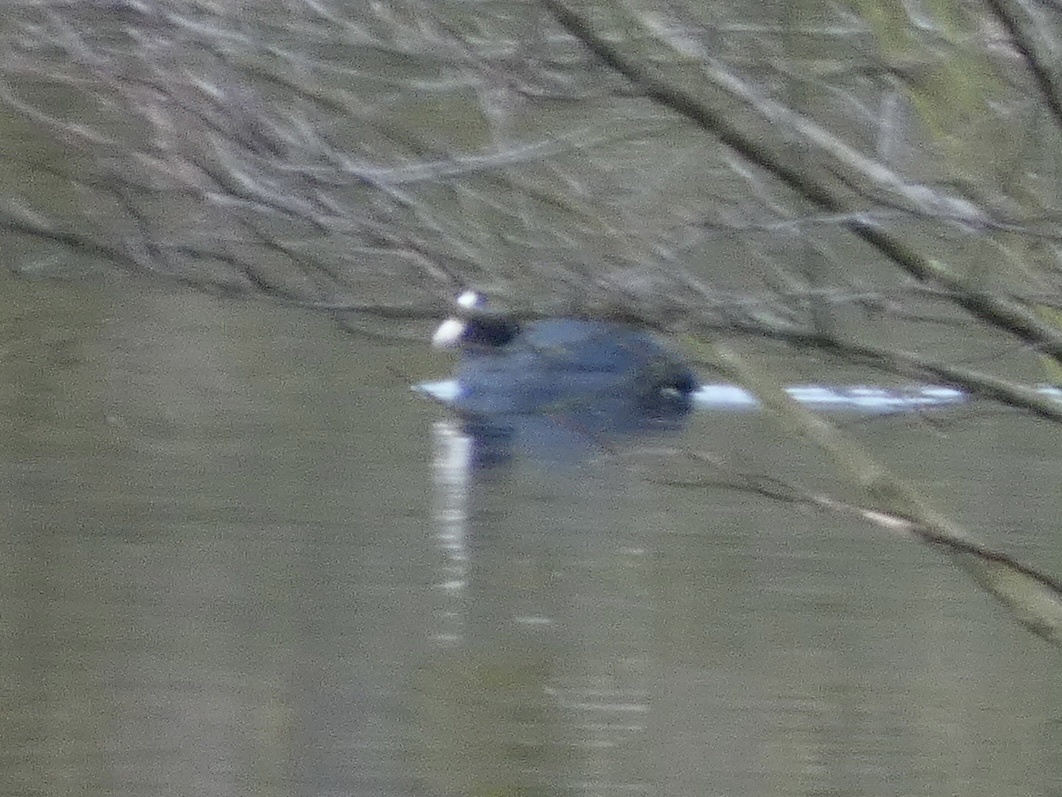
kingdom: Animalia
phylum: Chordata
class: Aves
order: Gruiformes
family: Rallidae
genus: Fulica
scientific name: Fulica atra
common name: Eurasian coot
